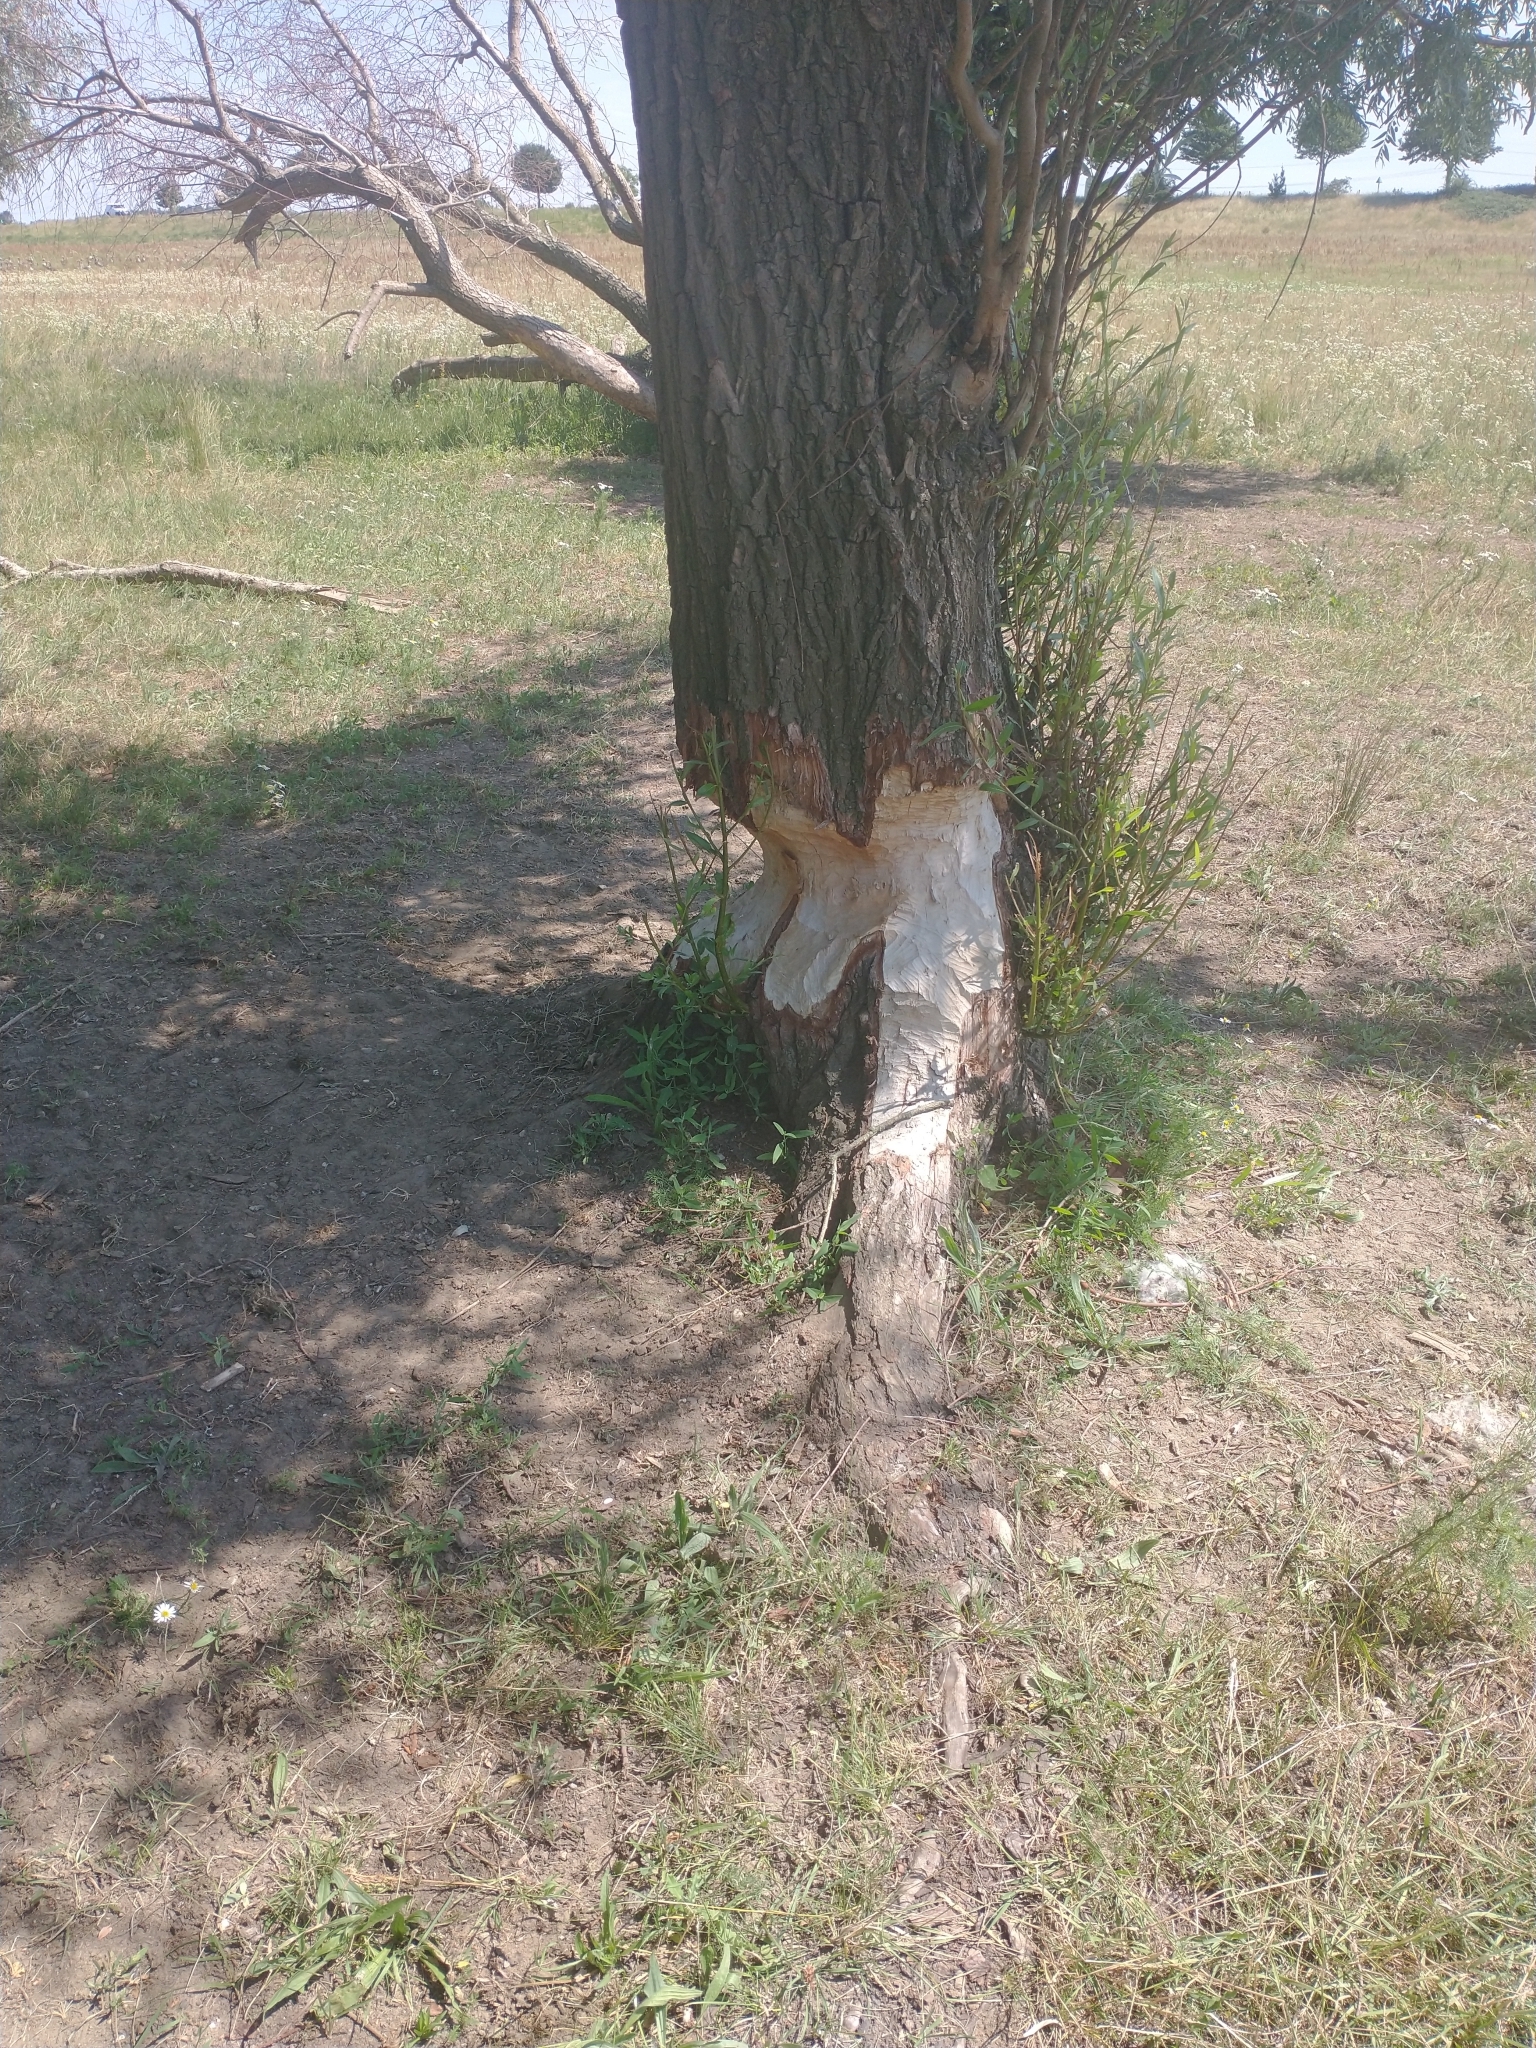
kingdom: Animalia
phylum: Chordata
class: Mammalia
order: Rodentia
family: Castoridae
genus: Castor
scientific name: Castor fiber
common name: Eurasian beaver
